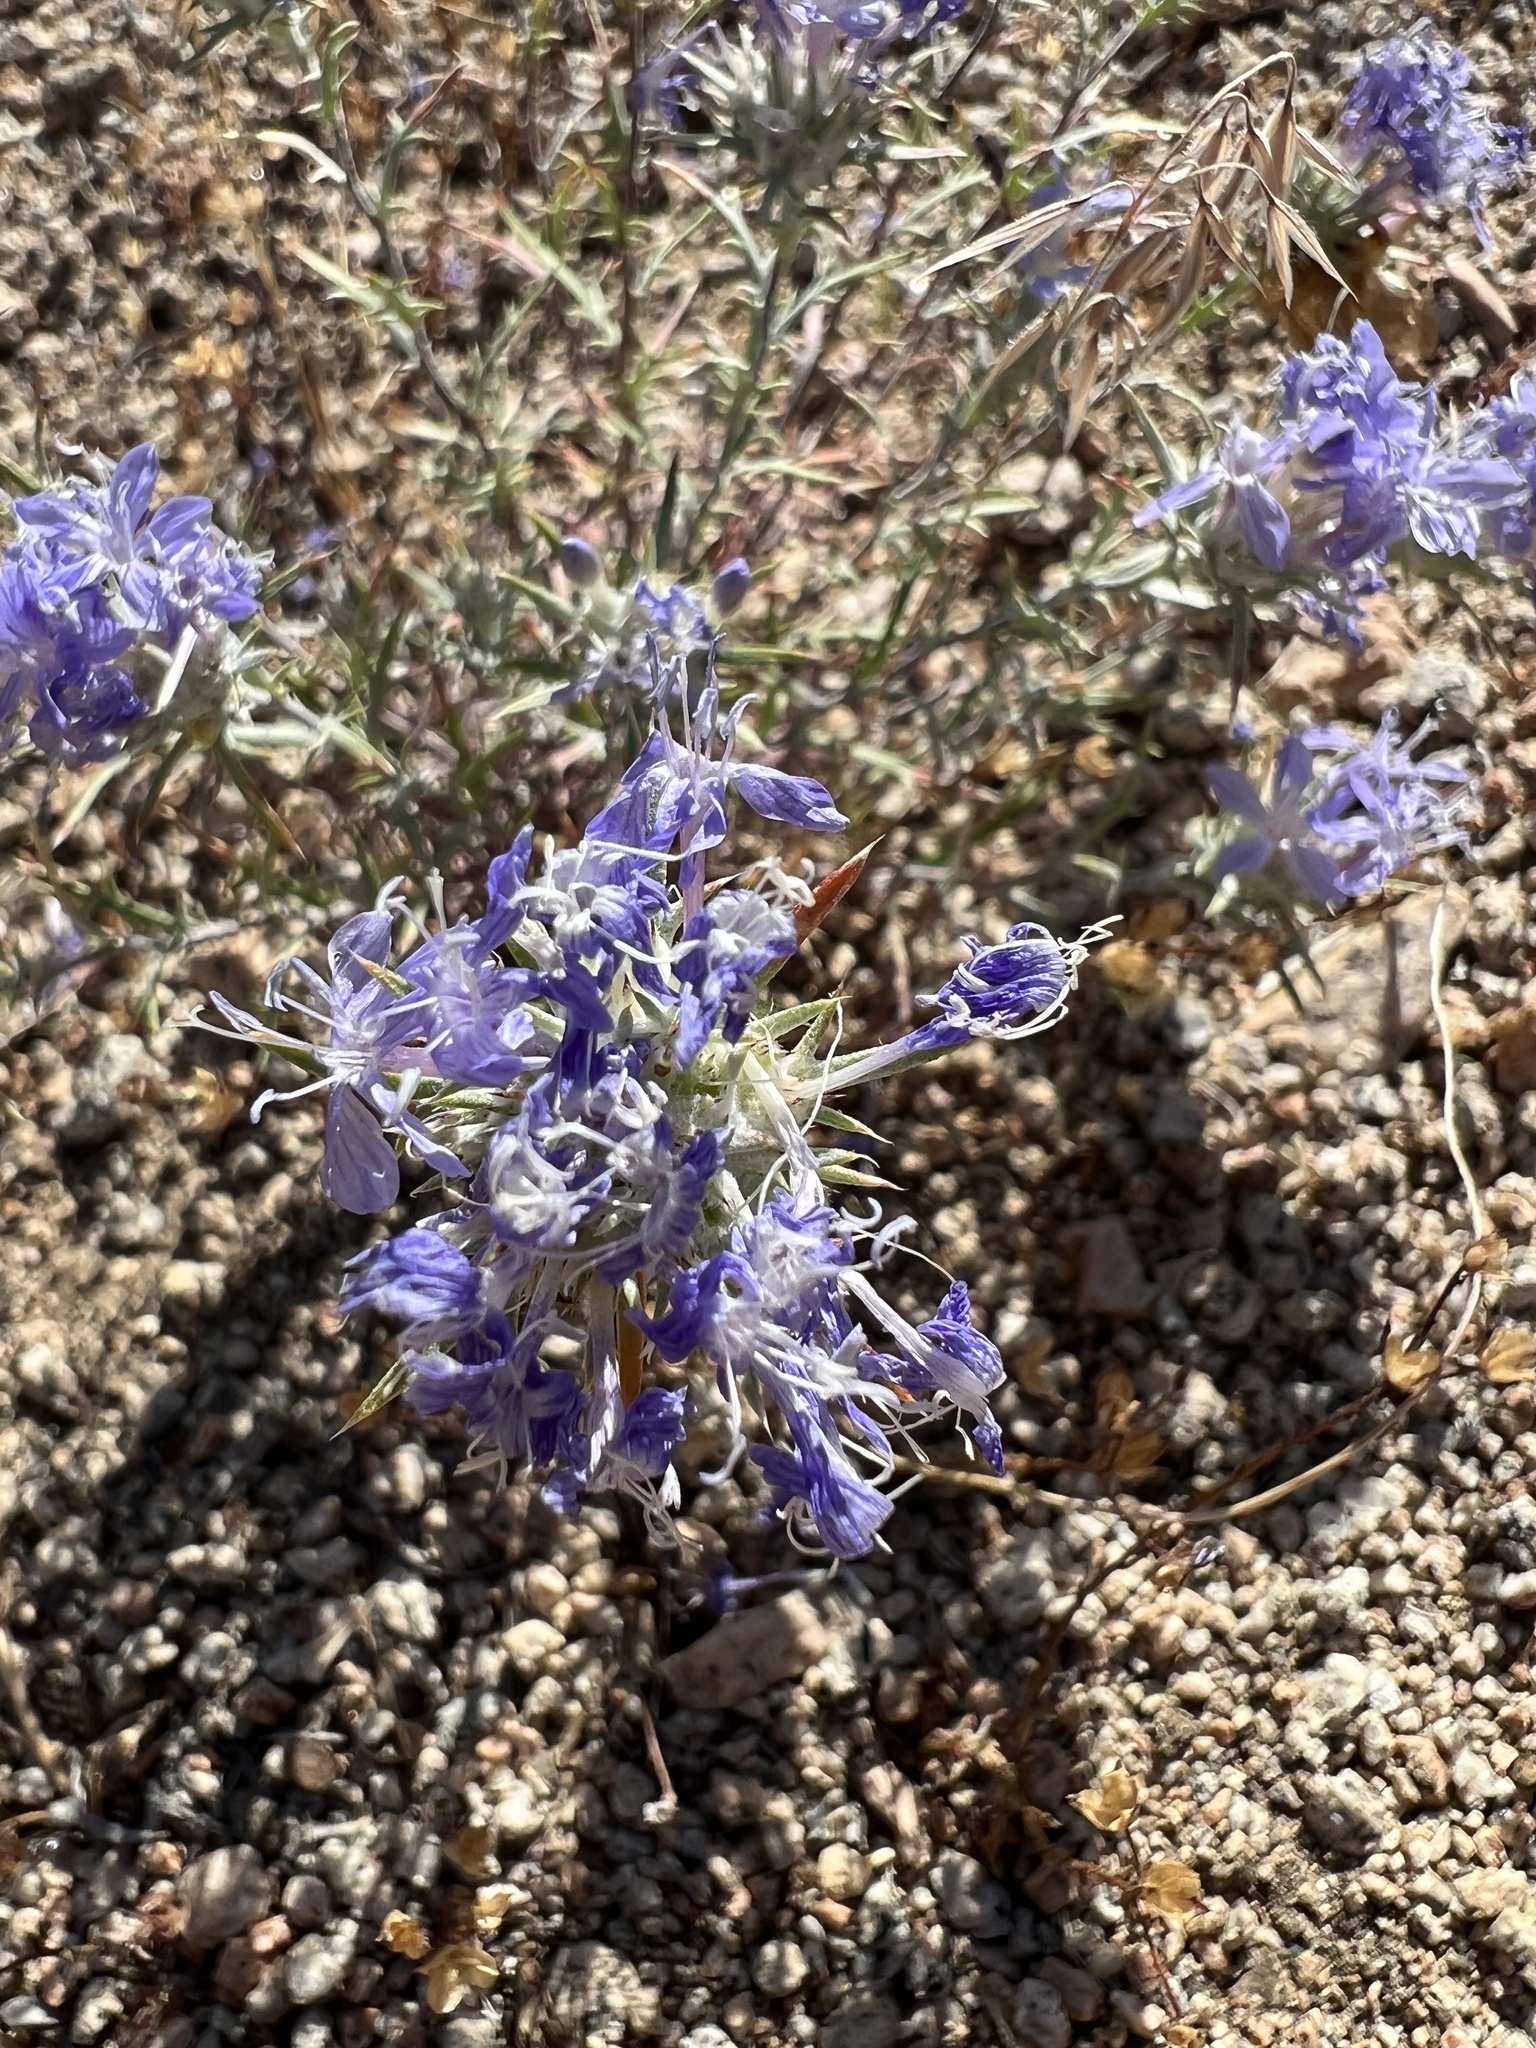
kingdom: Plantae
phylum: Tracheophyta
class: Magnoliopsida
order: Ericales
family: Polemoniaceae
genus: Eriastrum
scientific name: Eriastrum densifolium
